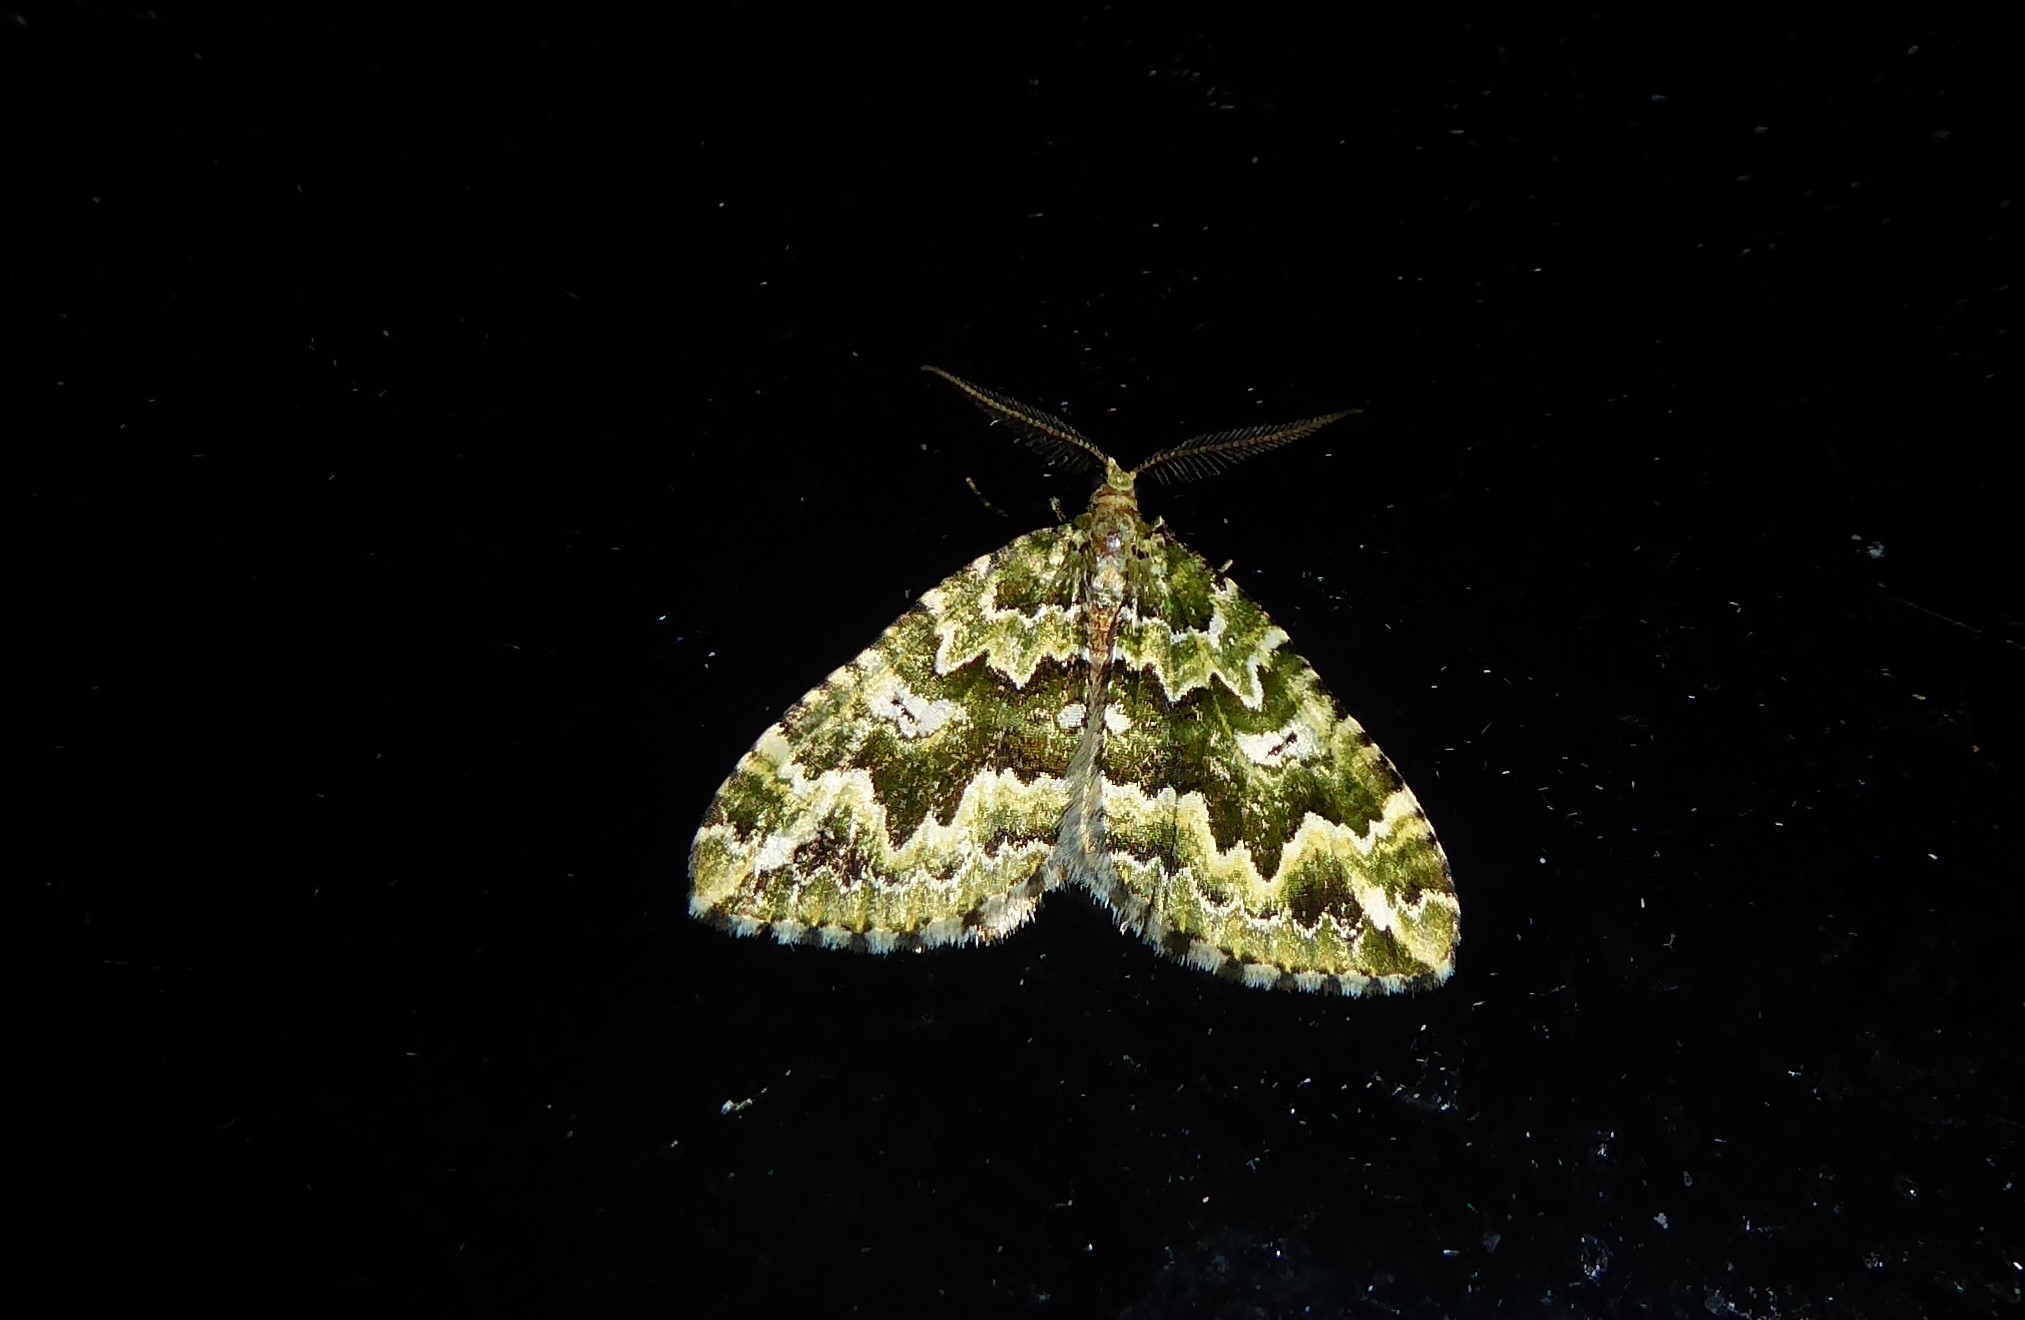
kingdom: Animalia
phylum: Arthropoda
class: Insecta
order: Lepidoptera
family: Geometridae
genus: Asaphodes
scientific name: Asaphodes beata
